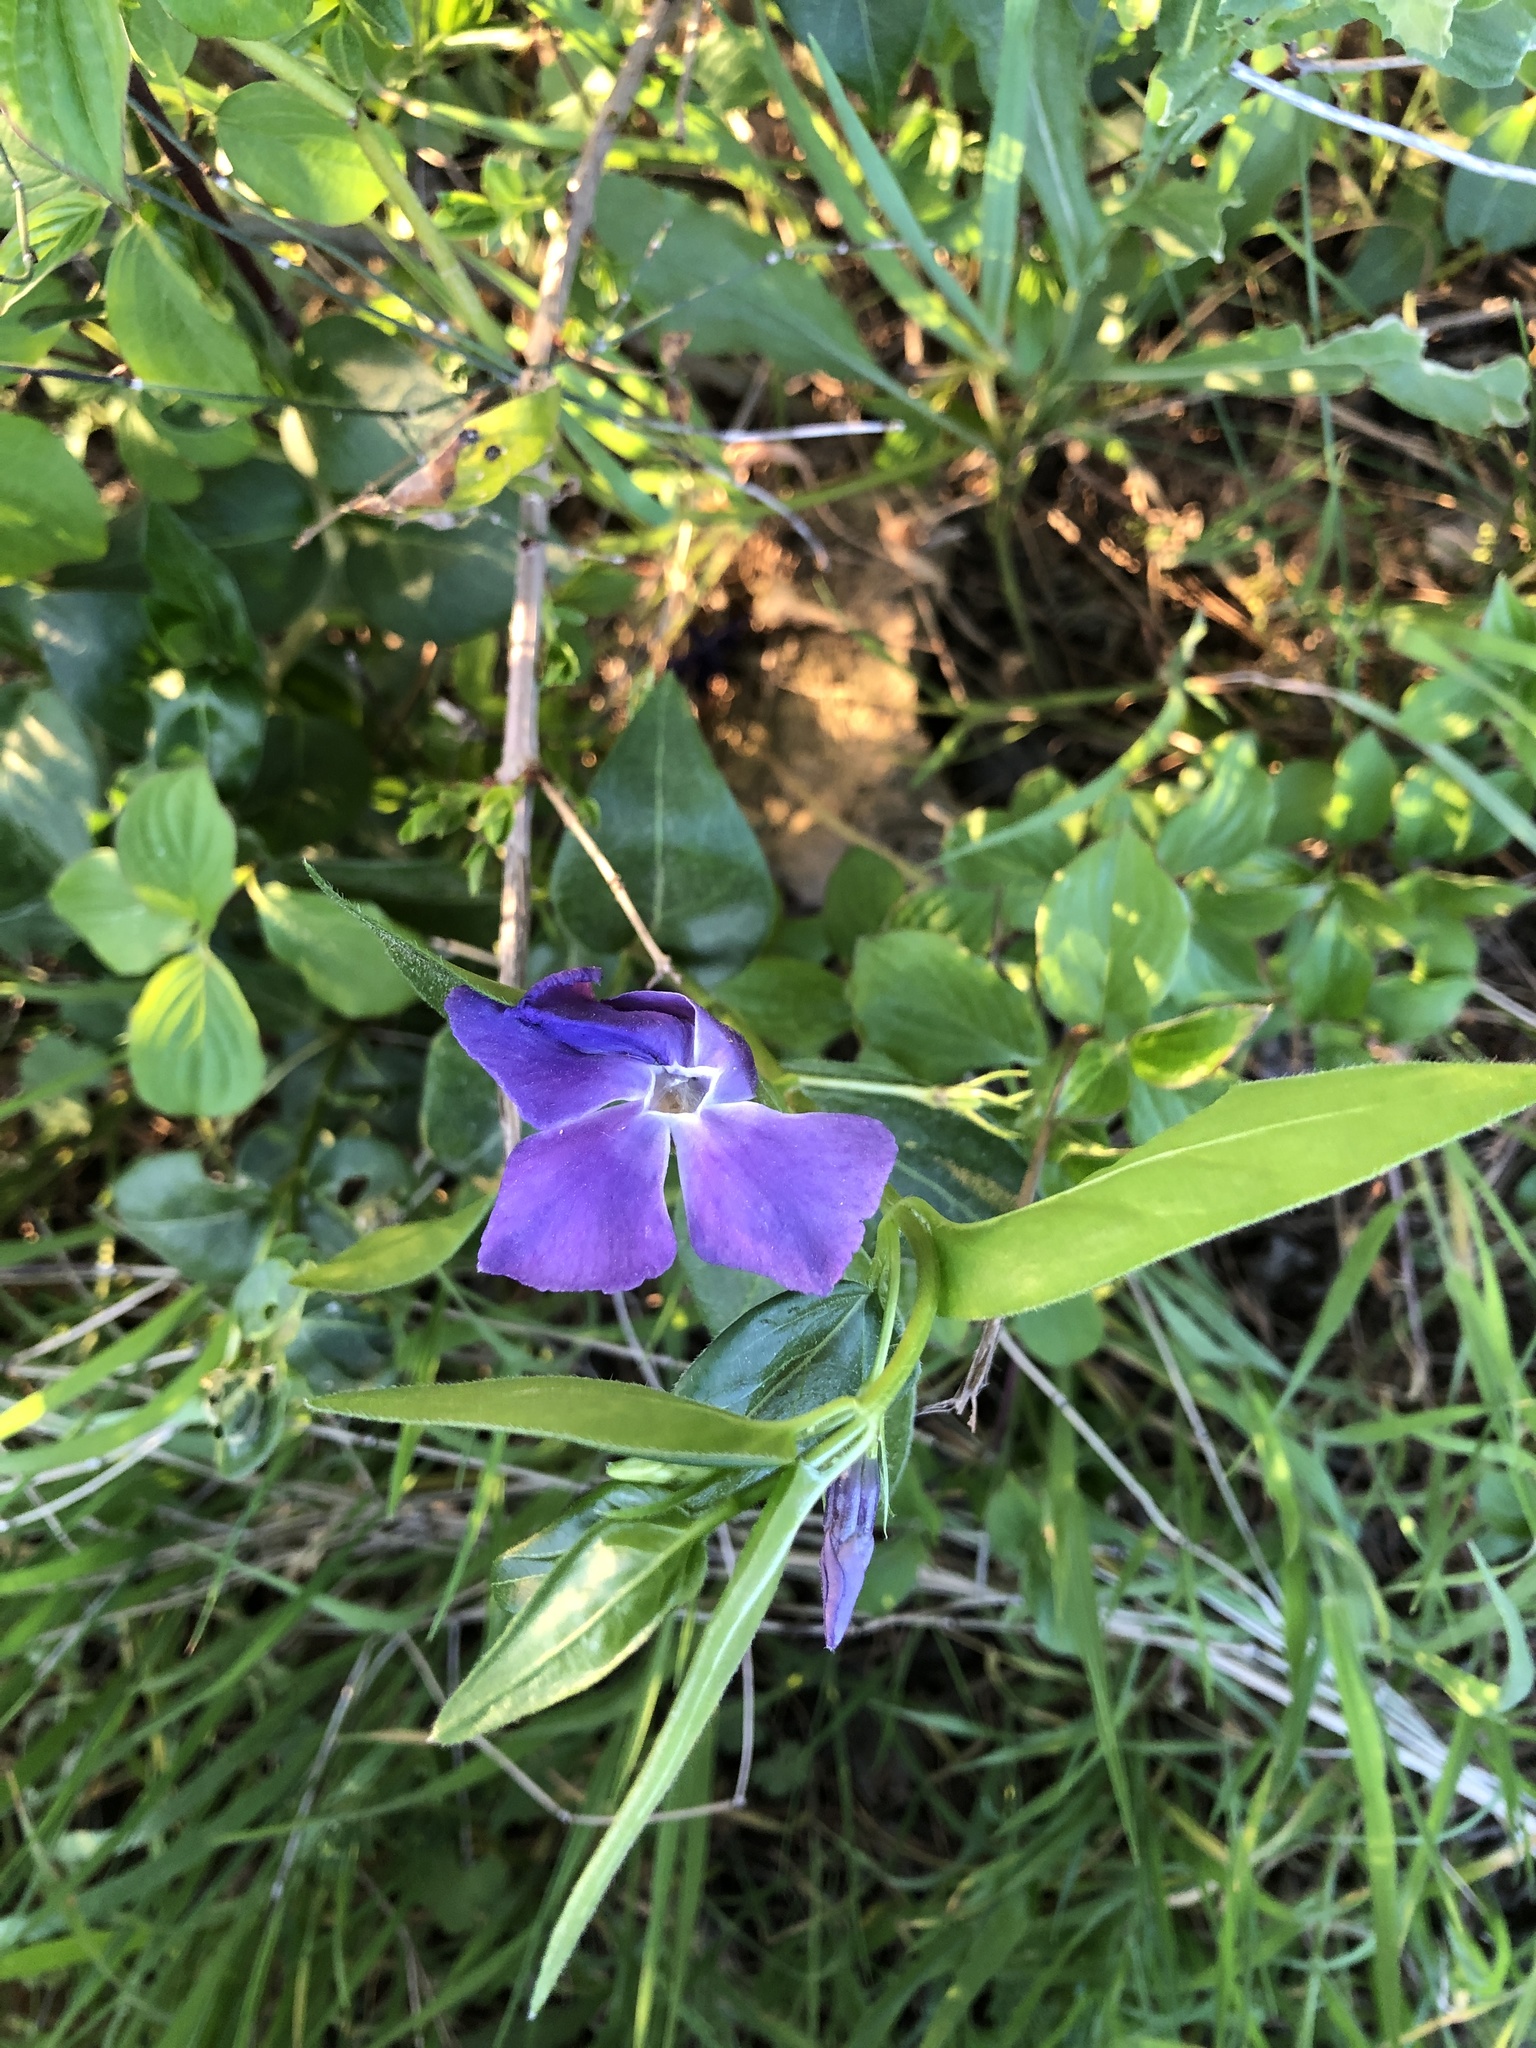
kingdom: Plantae
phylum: Tracheophyta
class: Magnoliopsida
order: Gentianales
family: Apocynaceae
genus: Vinca
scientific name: Vinca major
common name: Greater periwinkle
